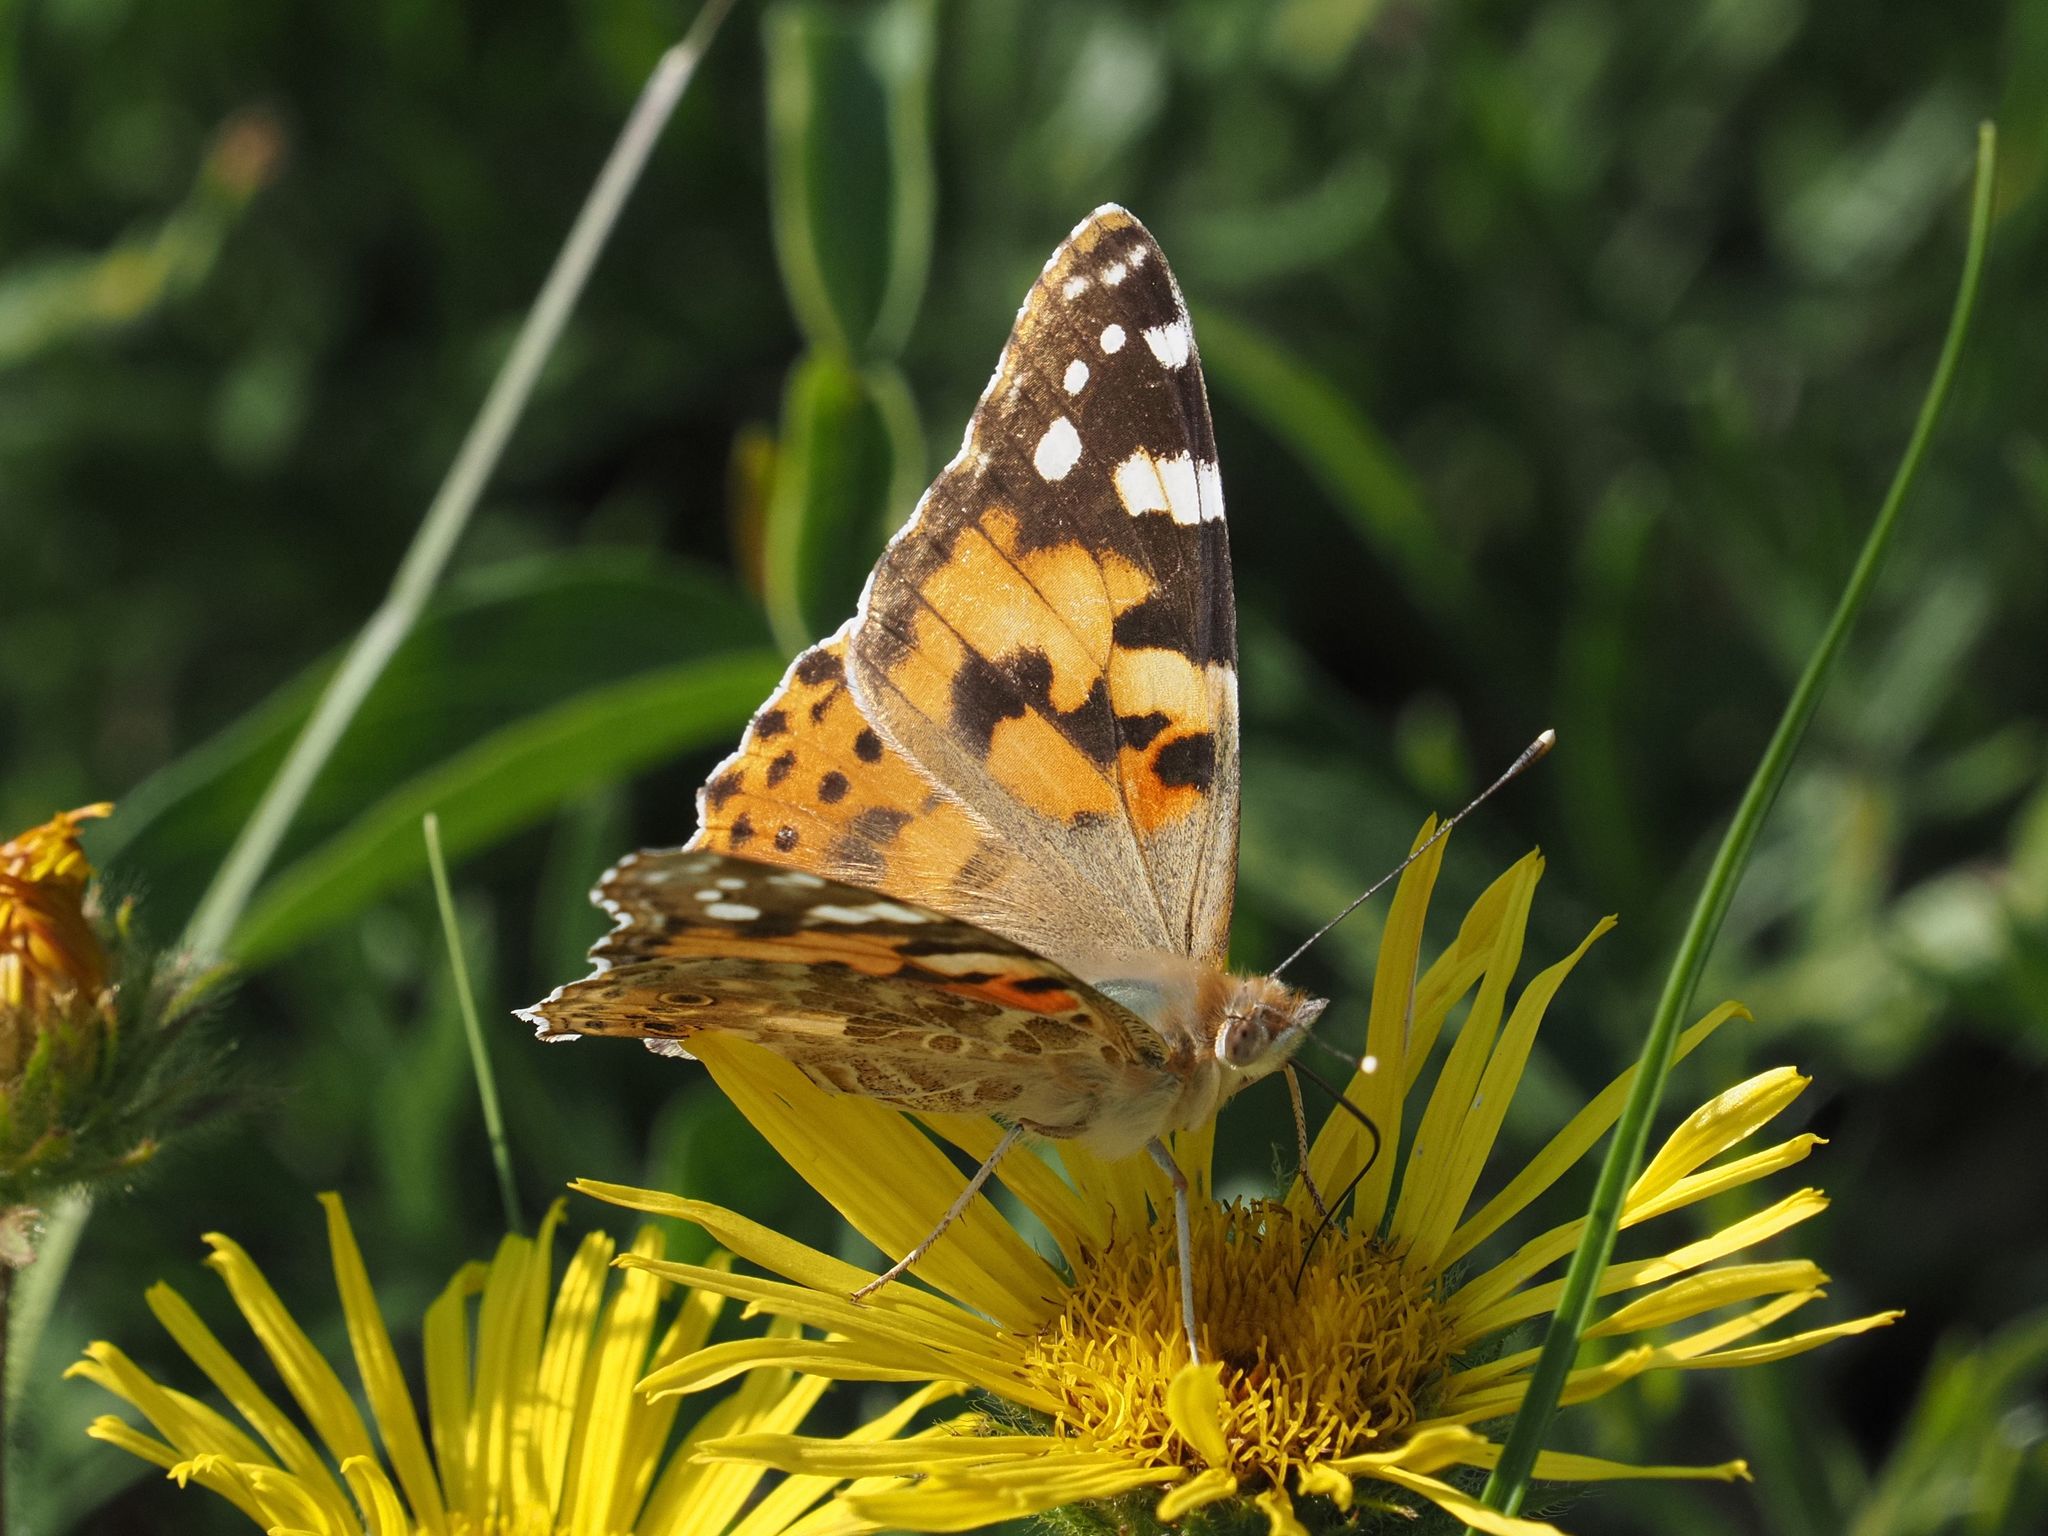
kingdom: Animalia
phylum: Arthropoda
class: Insecta
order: Lepidoptera
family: Nymphalidae
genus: Vanessa
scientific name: Vanessa cardui
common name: Painted lady
